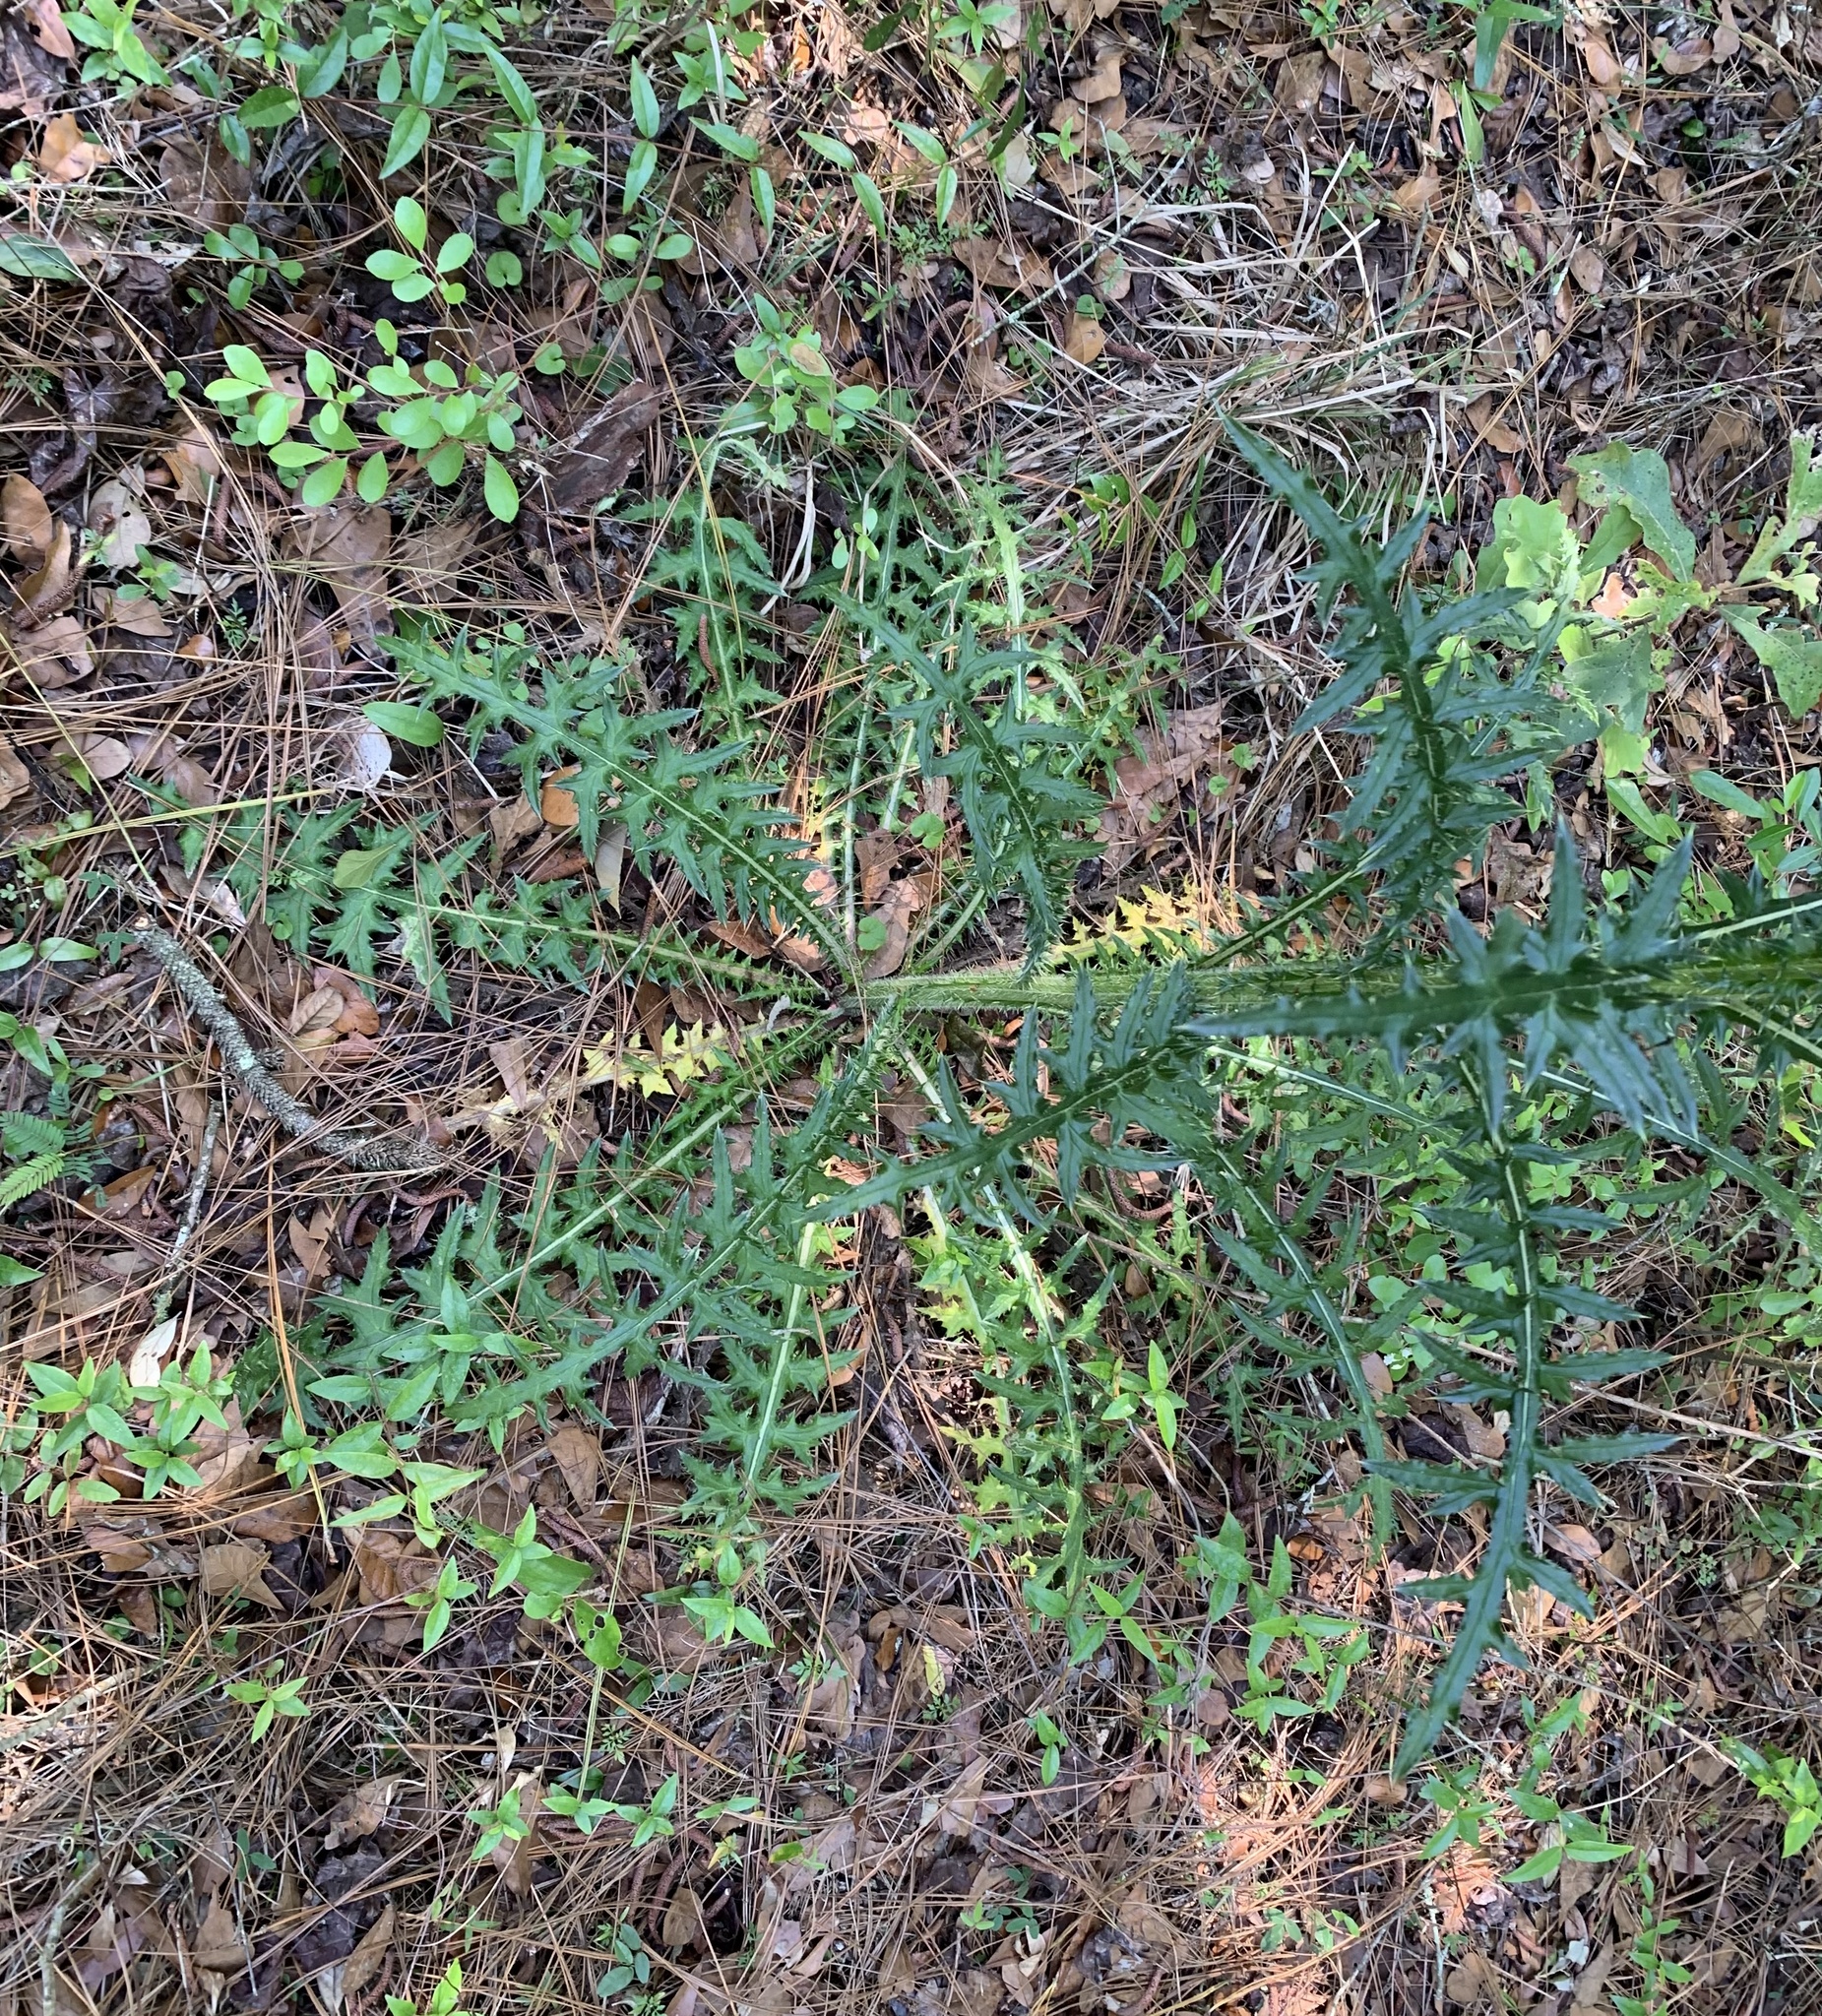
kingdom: Plantae
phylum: Tracheophyta
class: Magnoliopsida
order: Asterales
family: Asteraceae
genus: Cirsium
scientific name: Cirsium nuttalii
